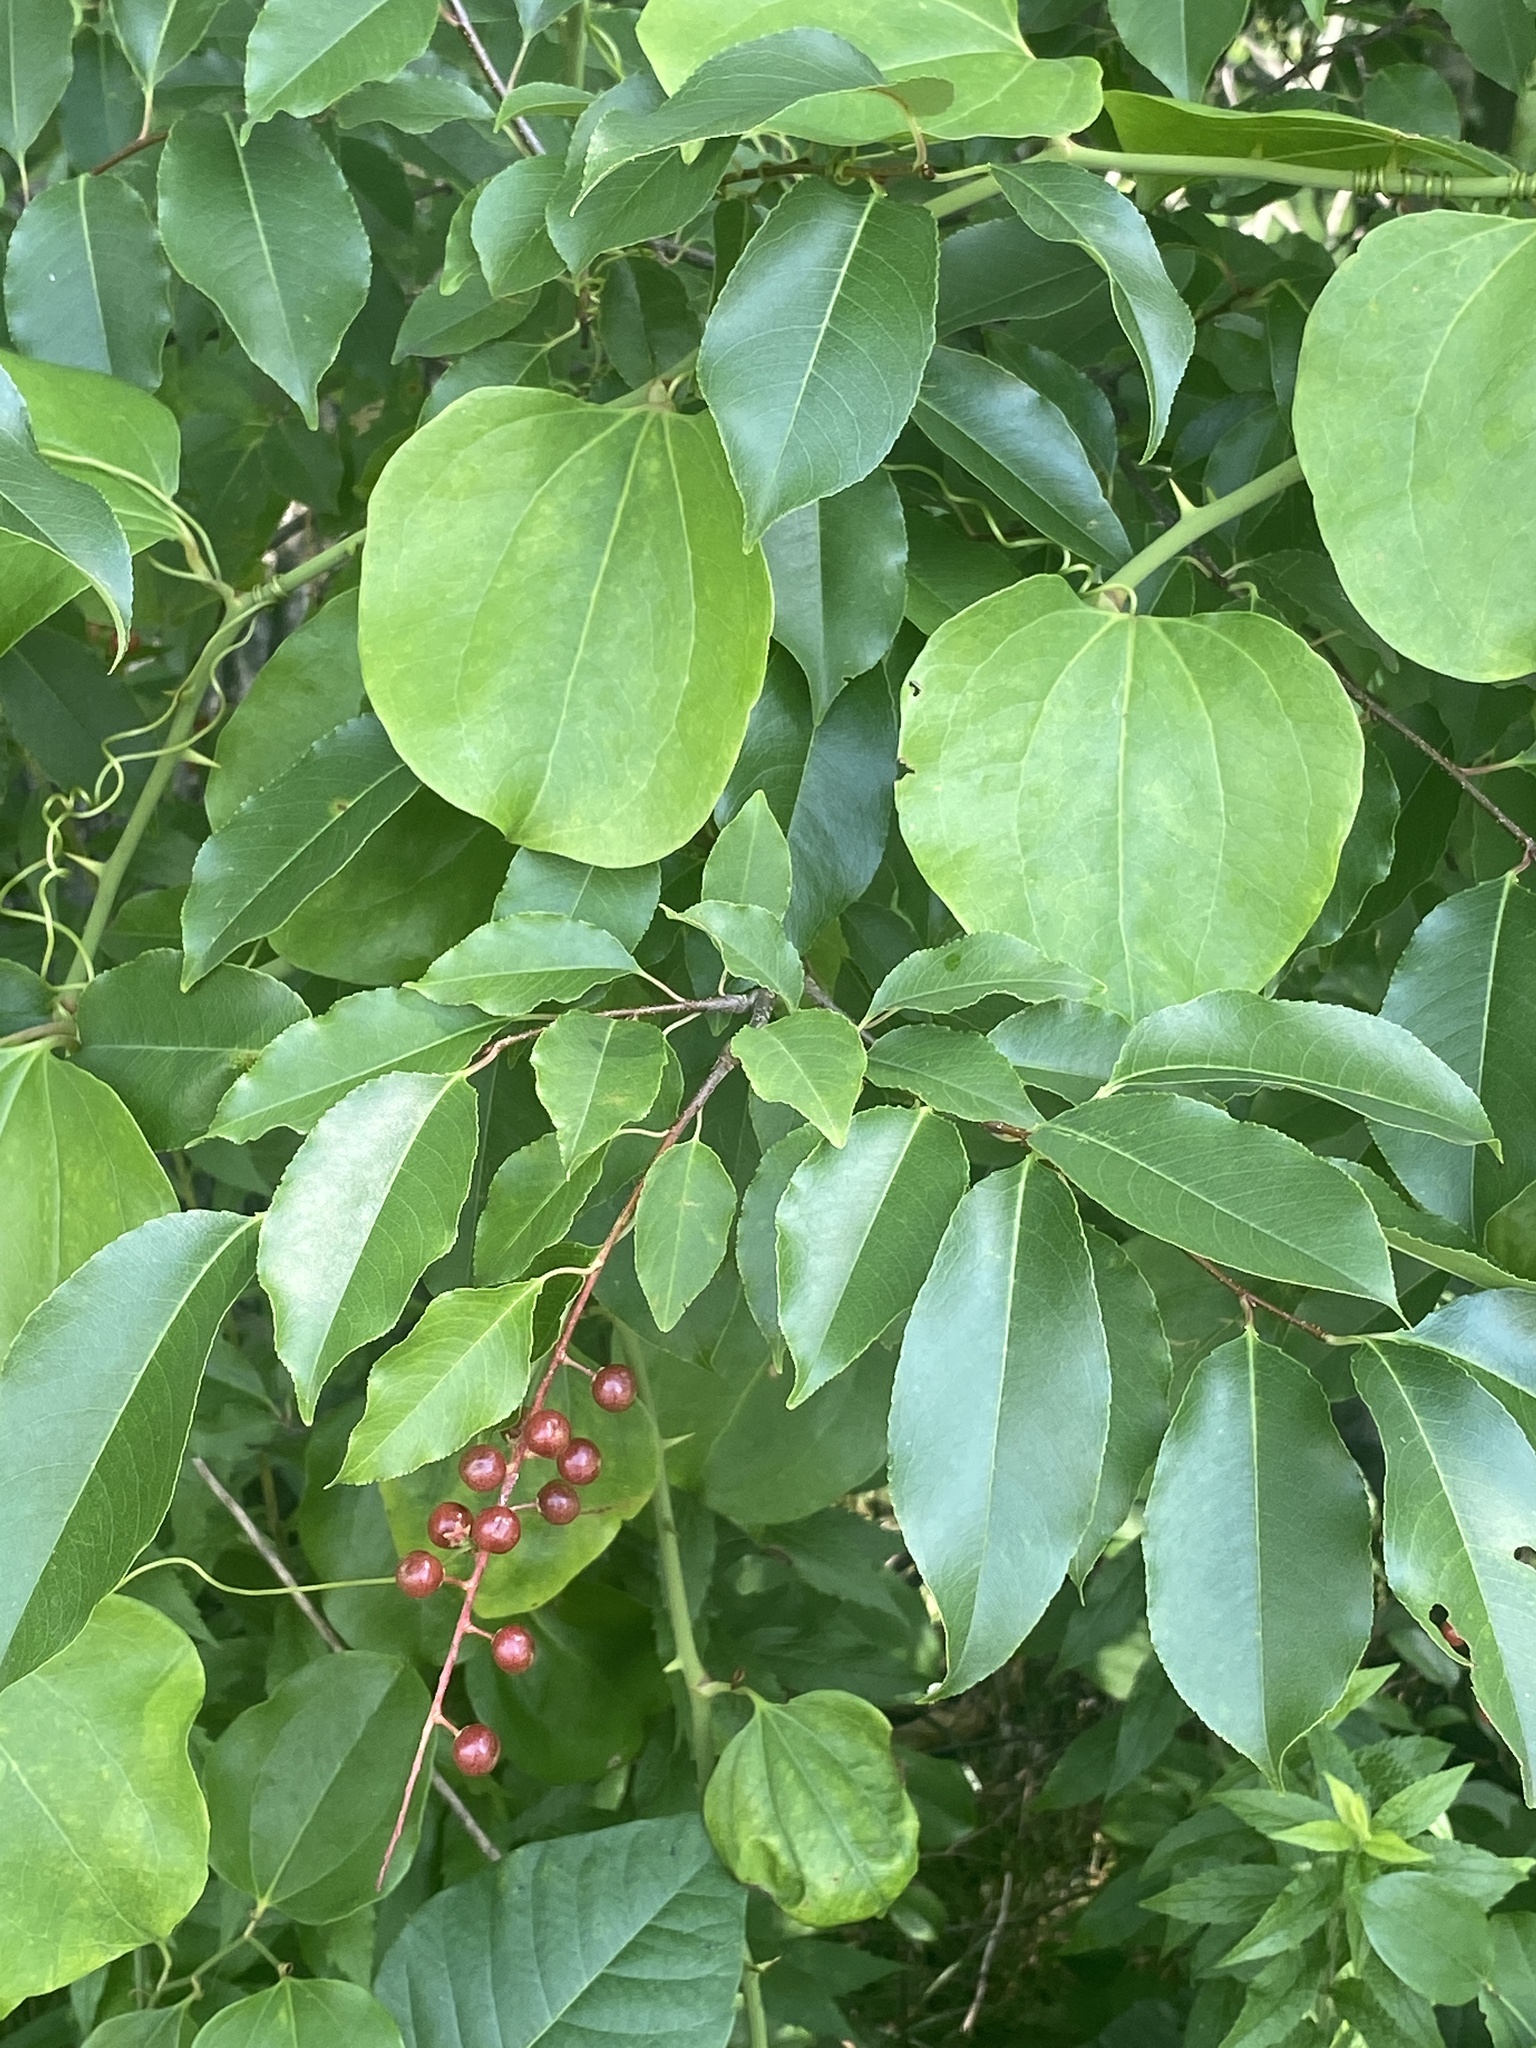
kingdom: Plantae
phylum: Tracheophyta
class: Liliopsida
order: Liliales
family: Smilacaceae
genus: Smilax
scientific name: Smilax rotundifolia
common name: Bullbriar
